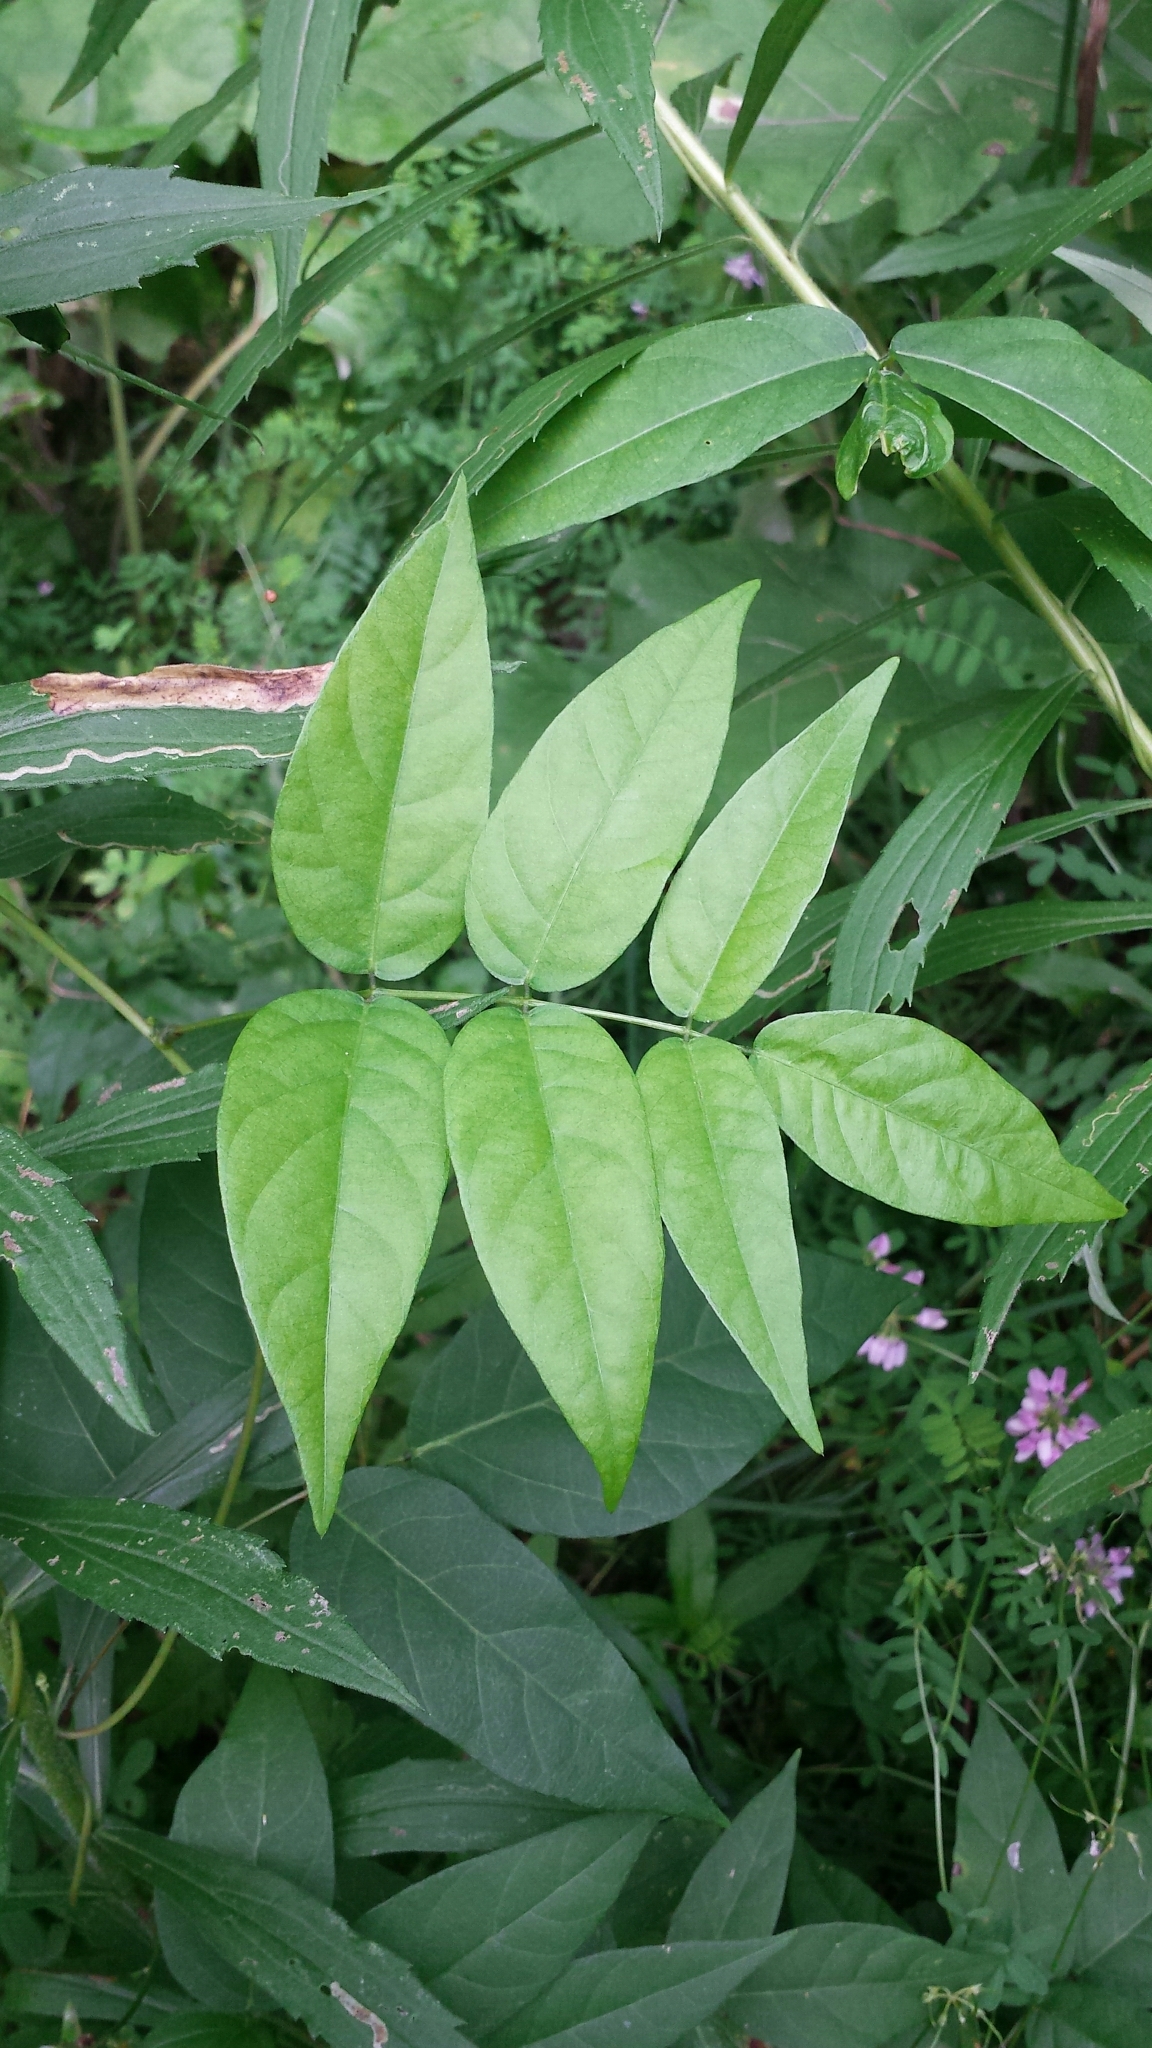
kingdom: Plantae
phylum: Tracheophyta
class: Magnoliopsida
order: Fabales
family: Fabaceae
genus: Apios
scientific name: Apios americana
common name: American potato-bean
